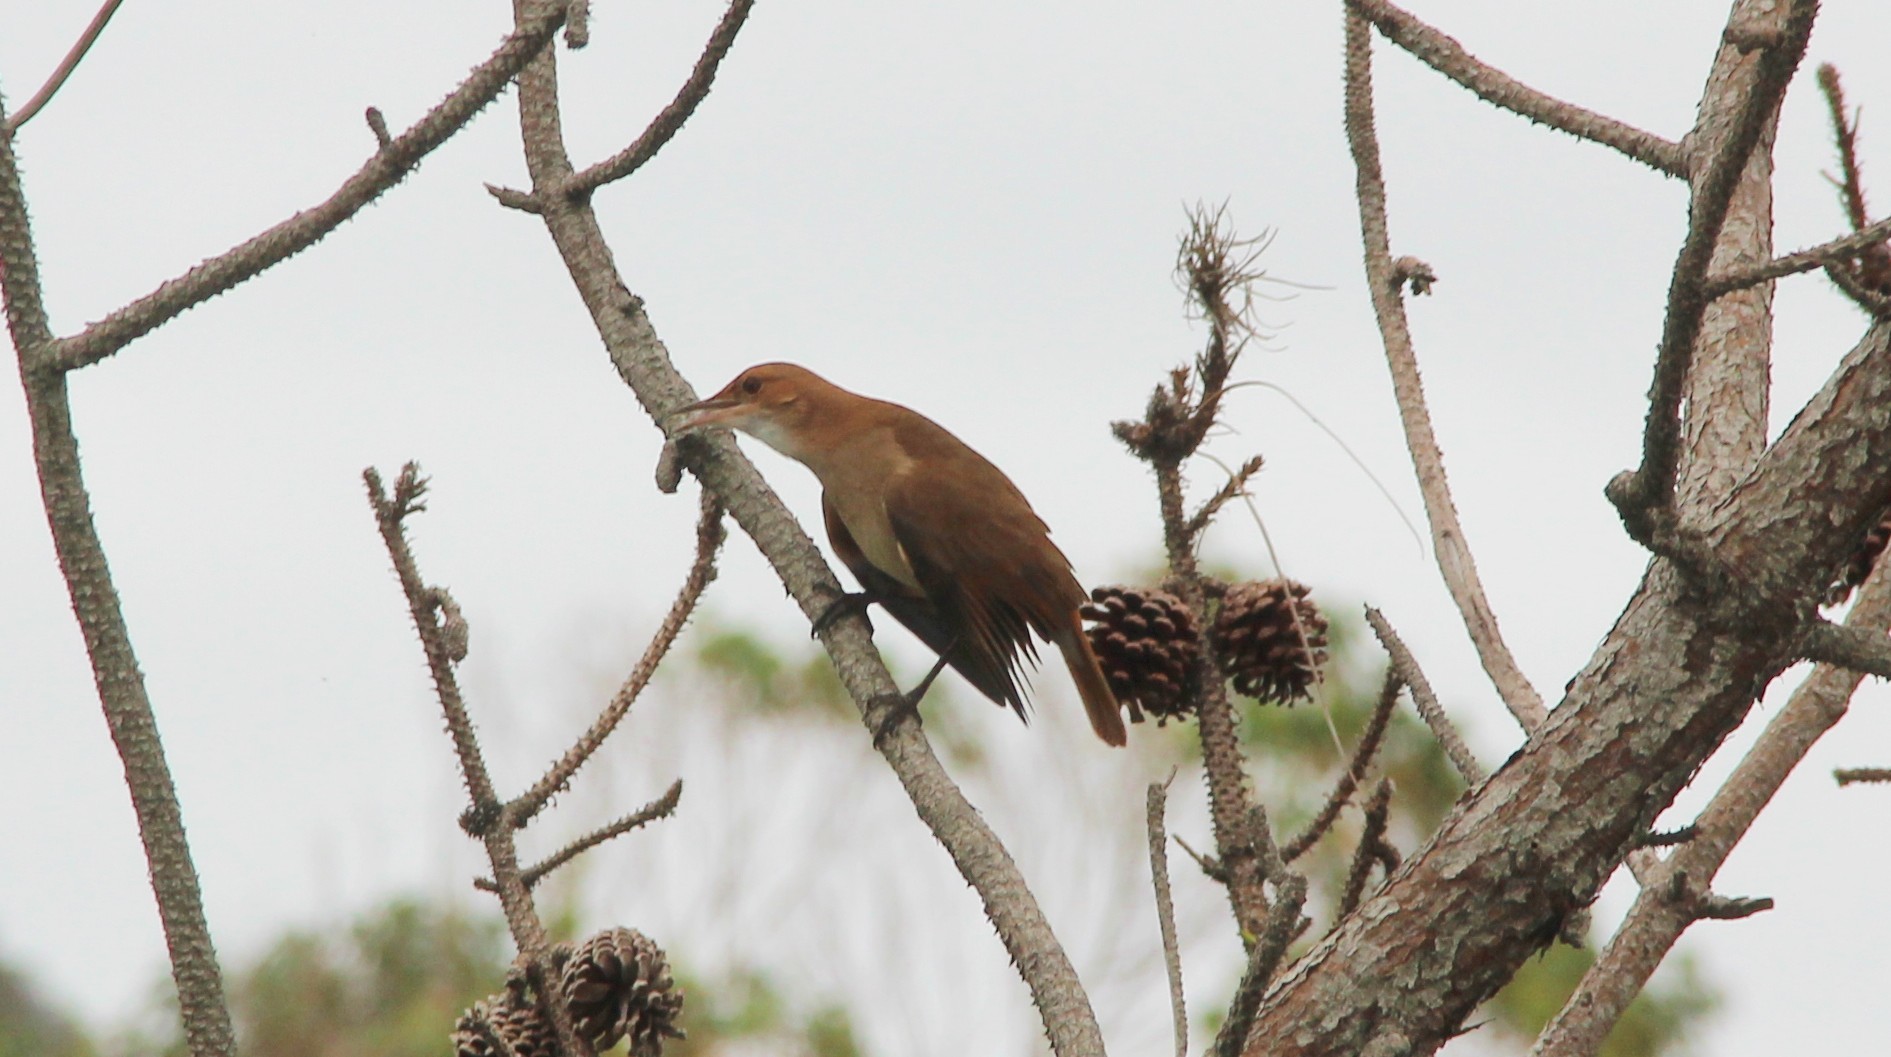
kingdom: Animalia
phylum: Chordata
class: Aves
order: Passeriformes
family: Furnariidae
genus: Furnarius
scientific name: Furnarius rufus
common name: Rufous hornero
